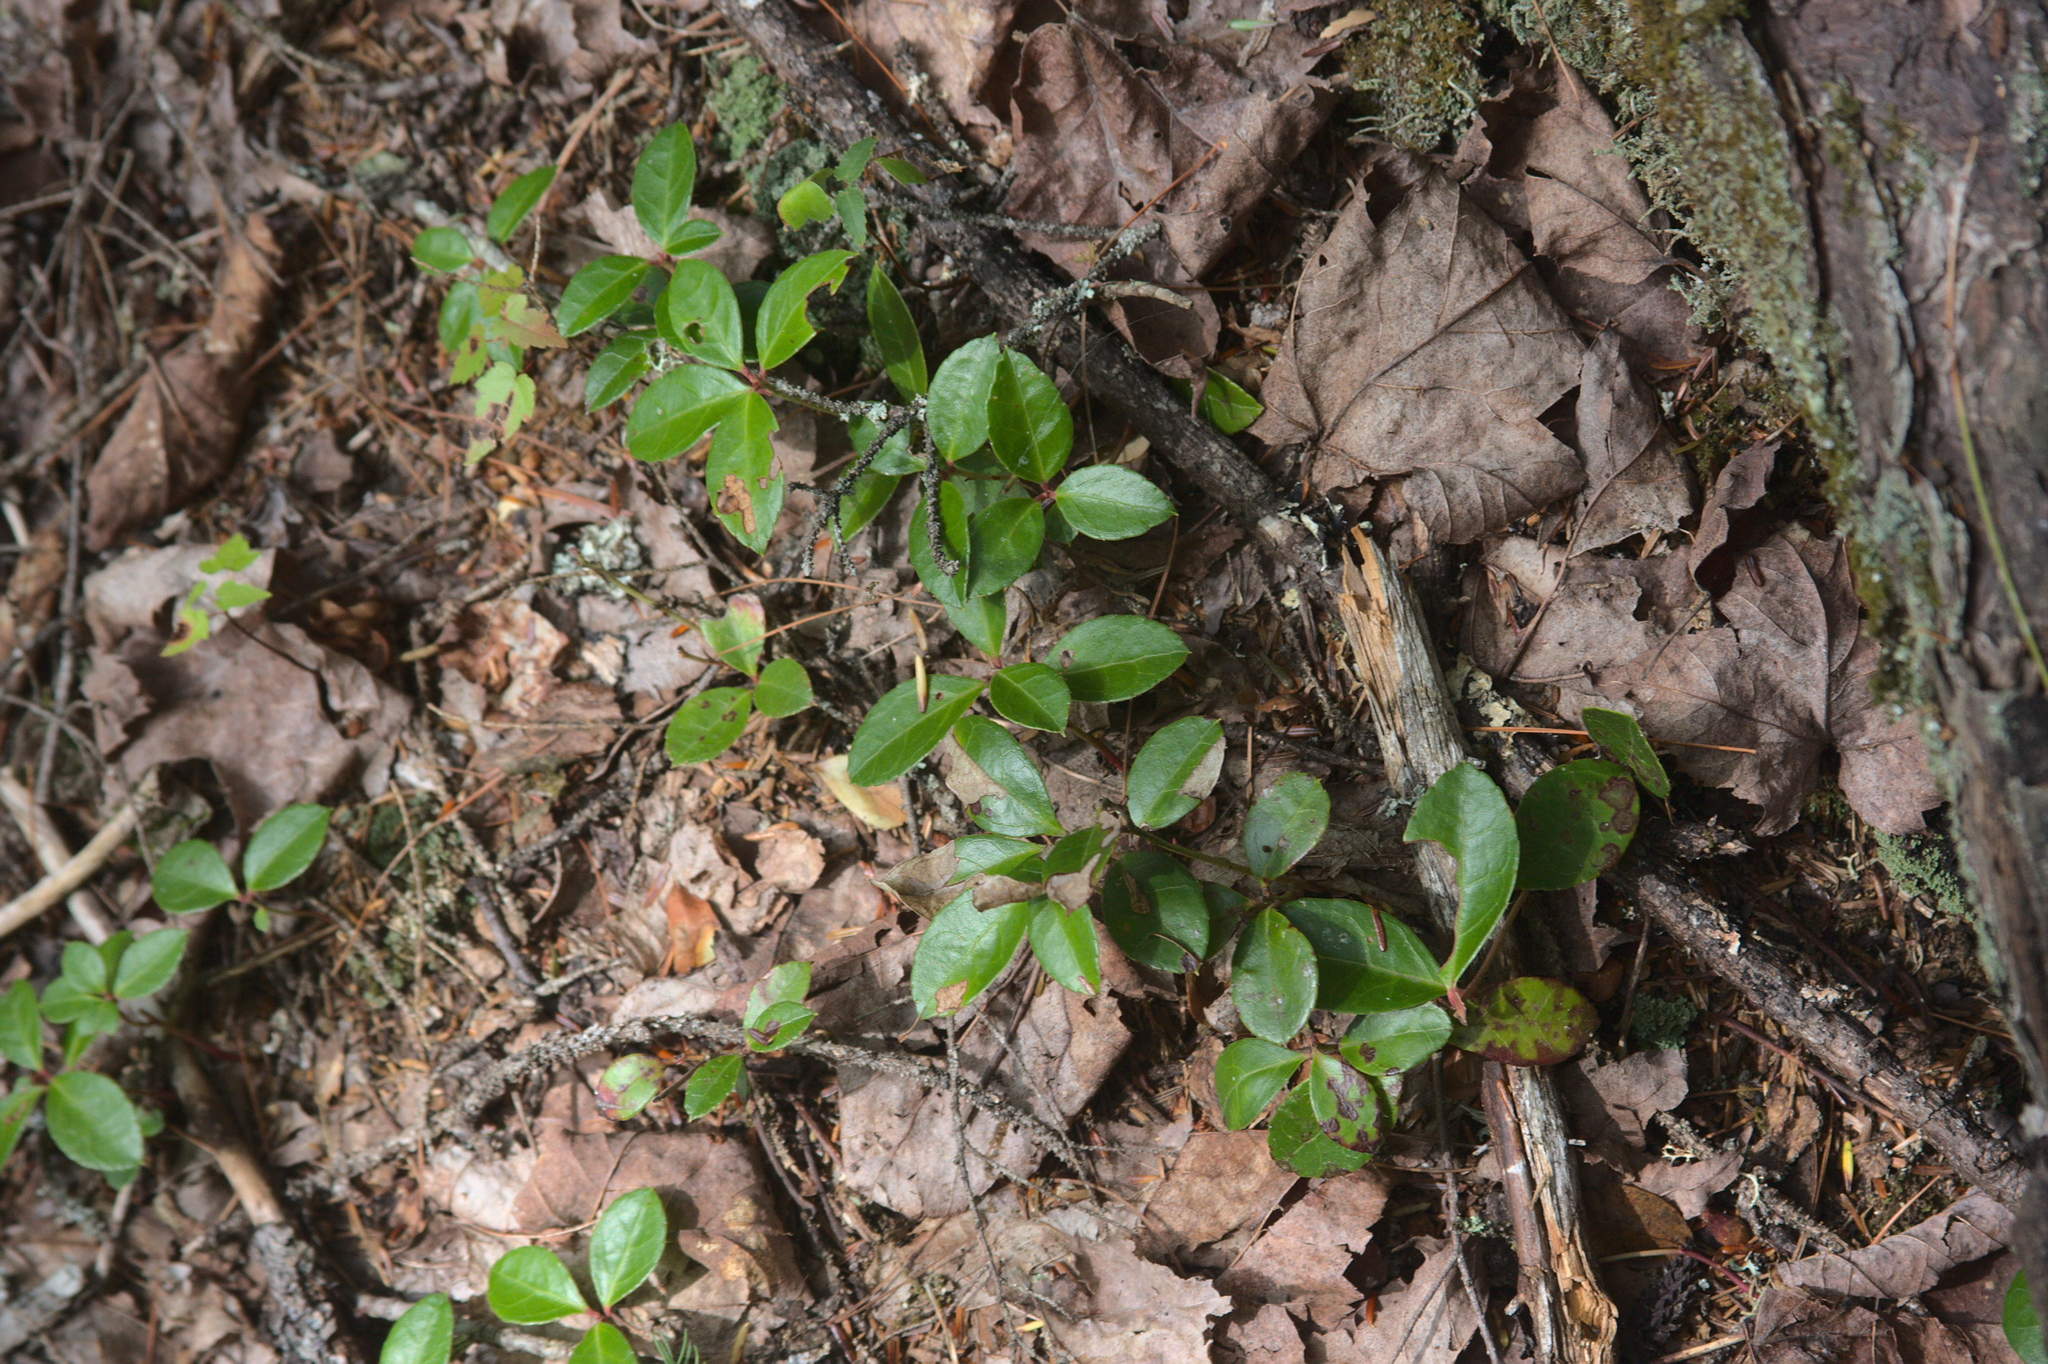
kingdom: Plantae
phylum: Tracheophyta
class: Magnoliopsida
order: Ericales
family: Ericaceae
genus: Gaultheria
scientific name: Gaultheria procumbens
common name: Checkerberry
